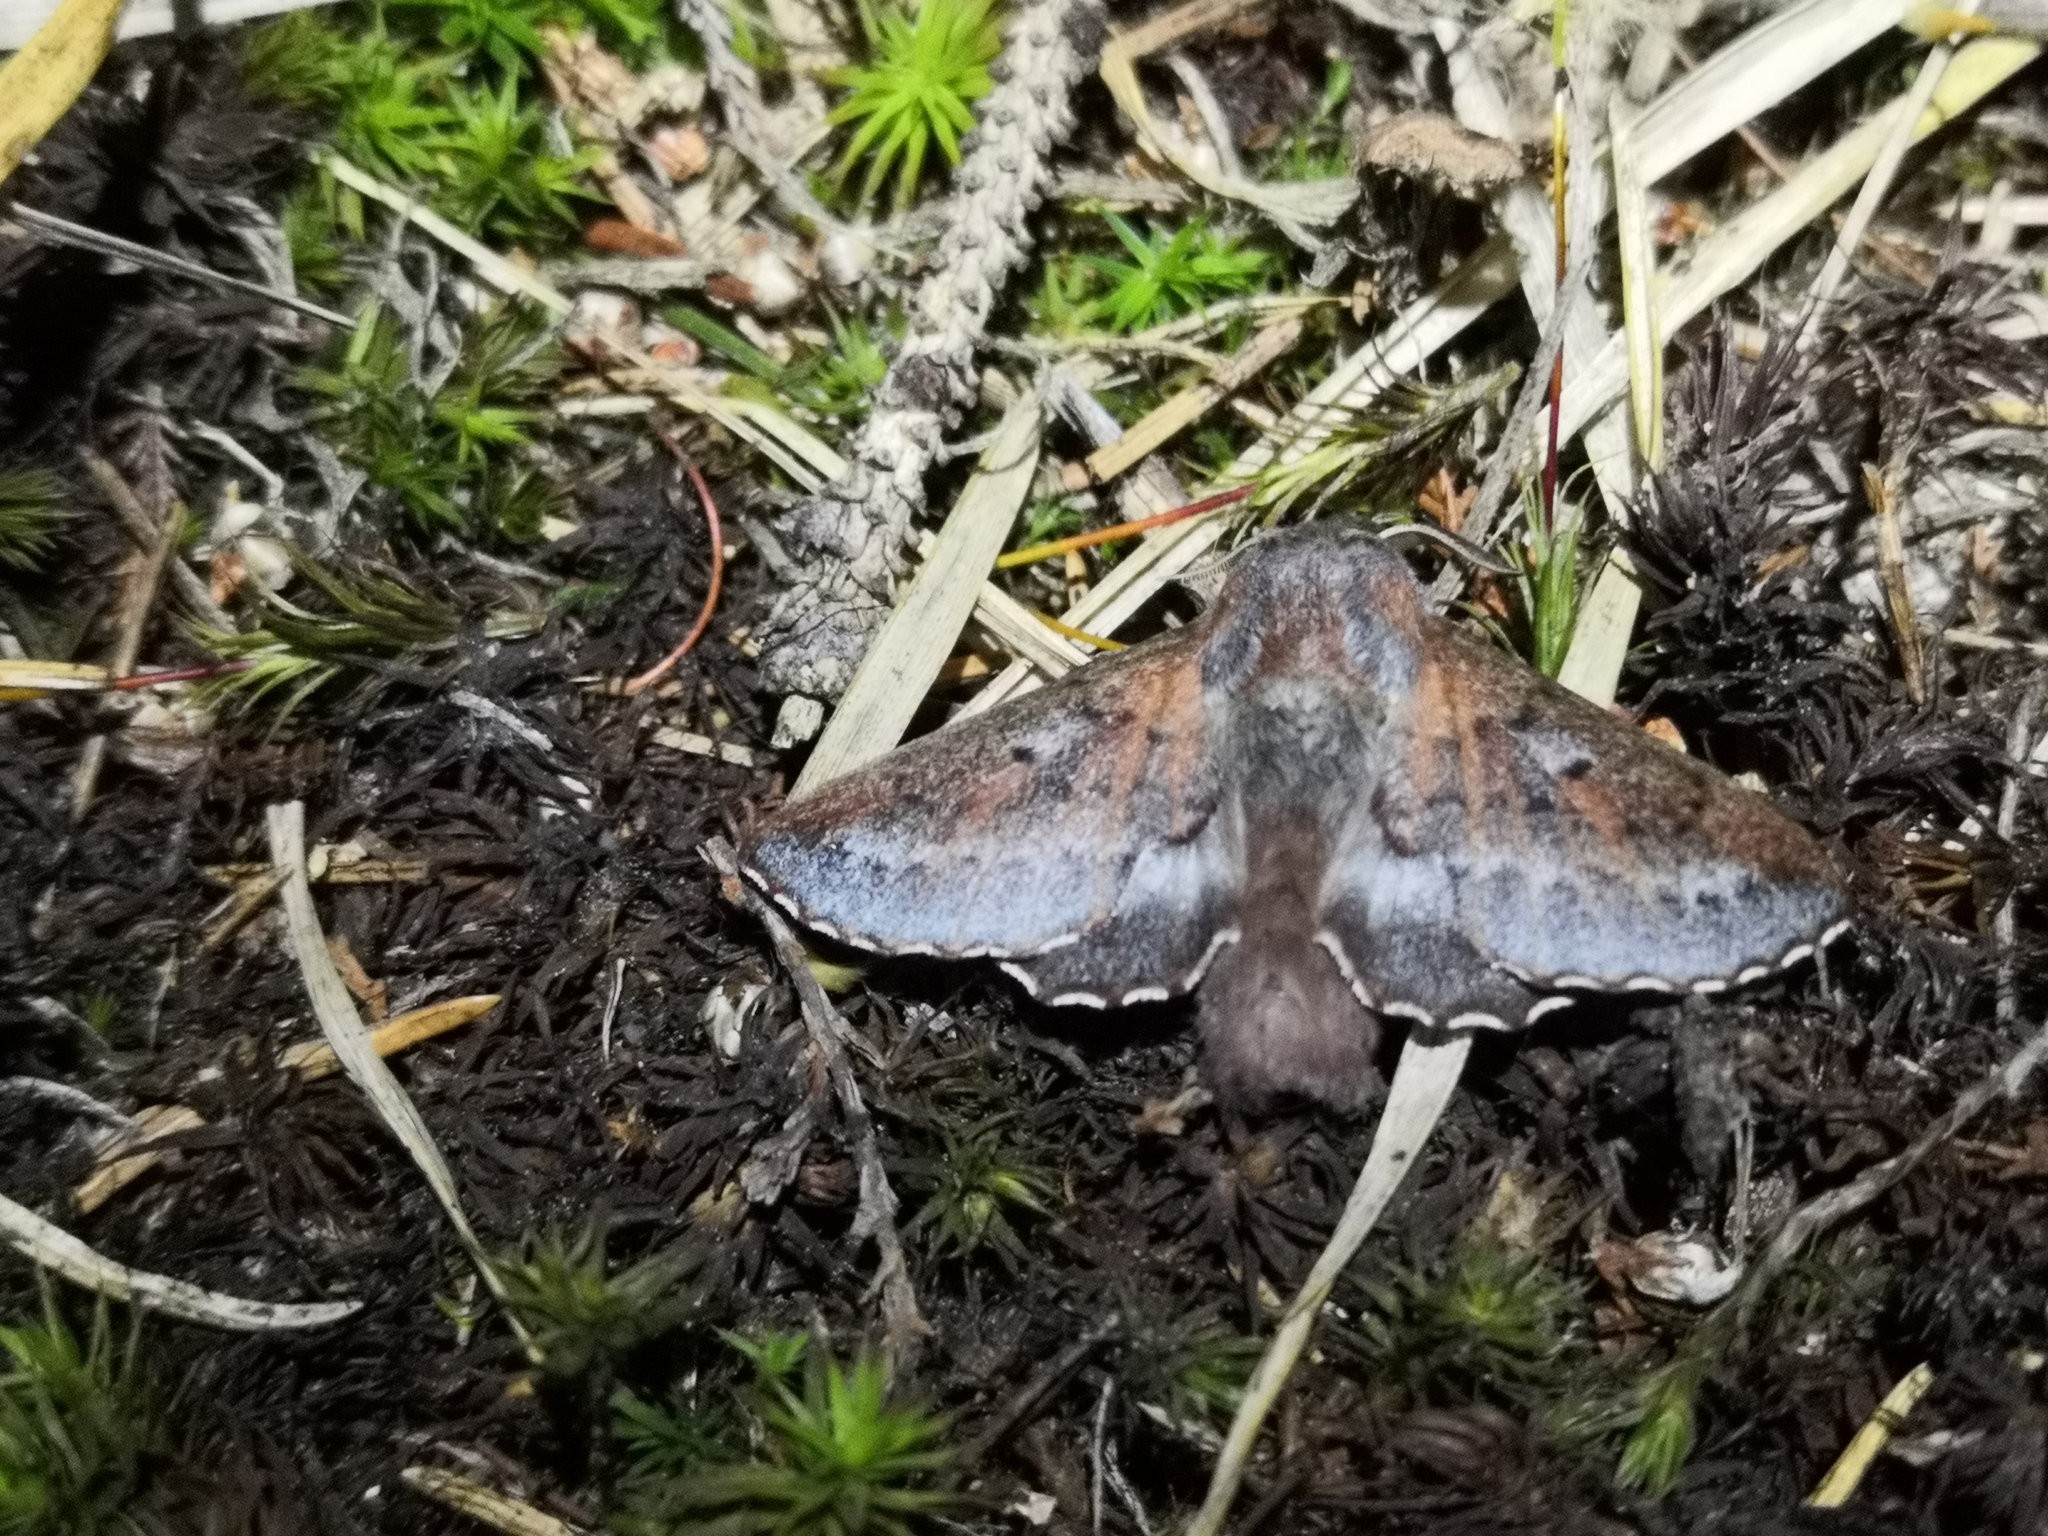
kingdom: Animalia
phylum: Arthropoda
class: Insecta
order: Lepidoptera
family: Lasiocampidae
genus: Phyllodesma
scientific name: Phyllodesma ilicifolia
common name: Small lappet
